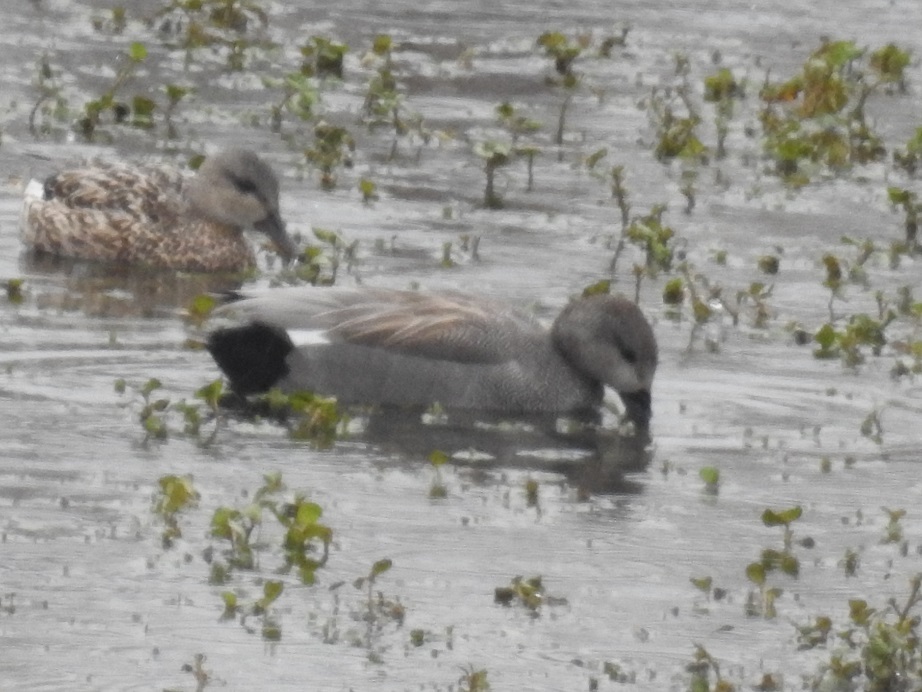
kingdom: Animalia
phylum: Chordata
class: Aves
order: Anseriformes
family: Anatidae
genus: Mareca
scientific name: Mareca strepera
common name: Gadwall
